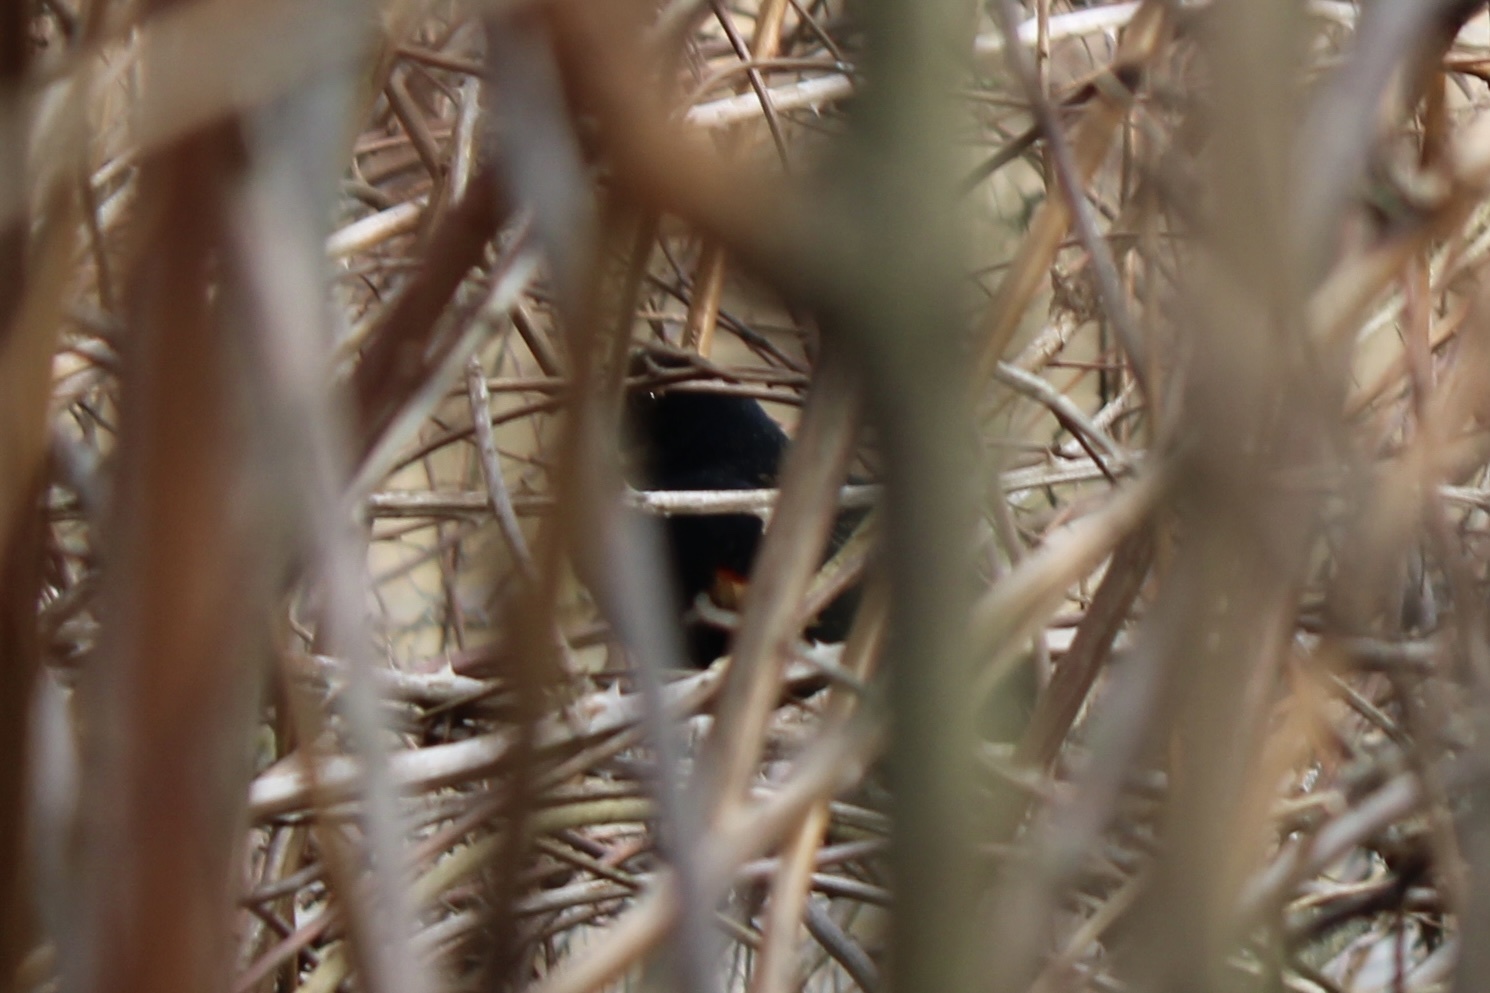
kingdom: Animalia
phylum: Chordata
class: Aves
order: Passeriformes
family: Icteridae
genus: Agelaius
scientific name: Agelaius phoeniceus
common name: Red-winged blackbird
